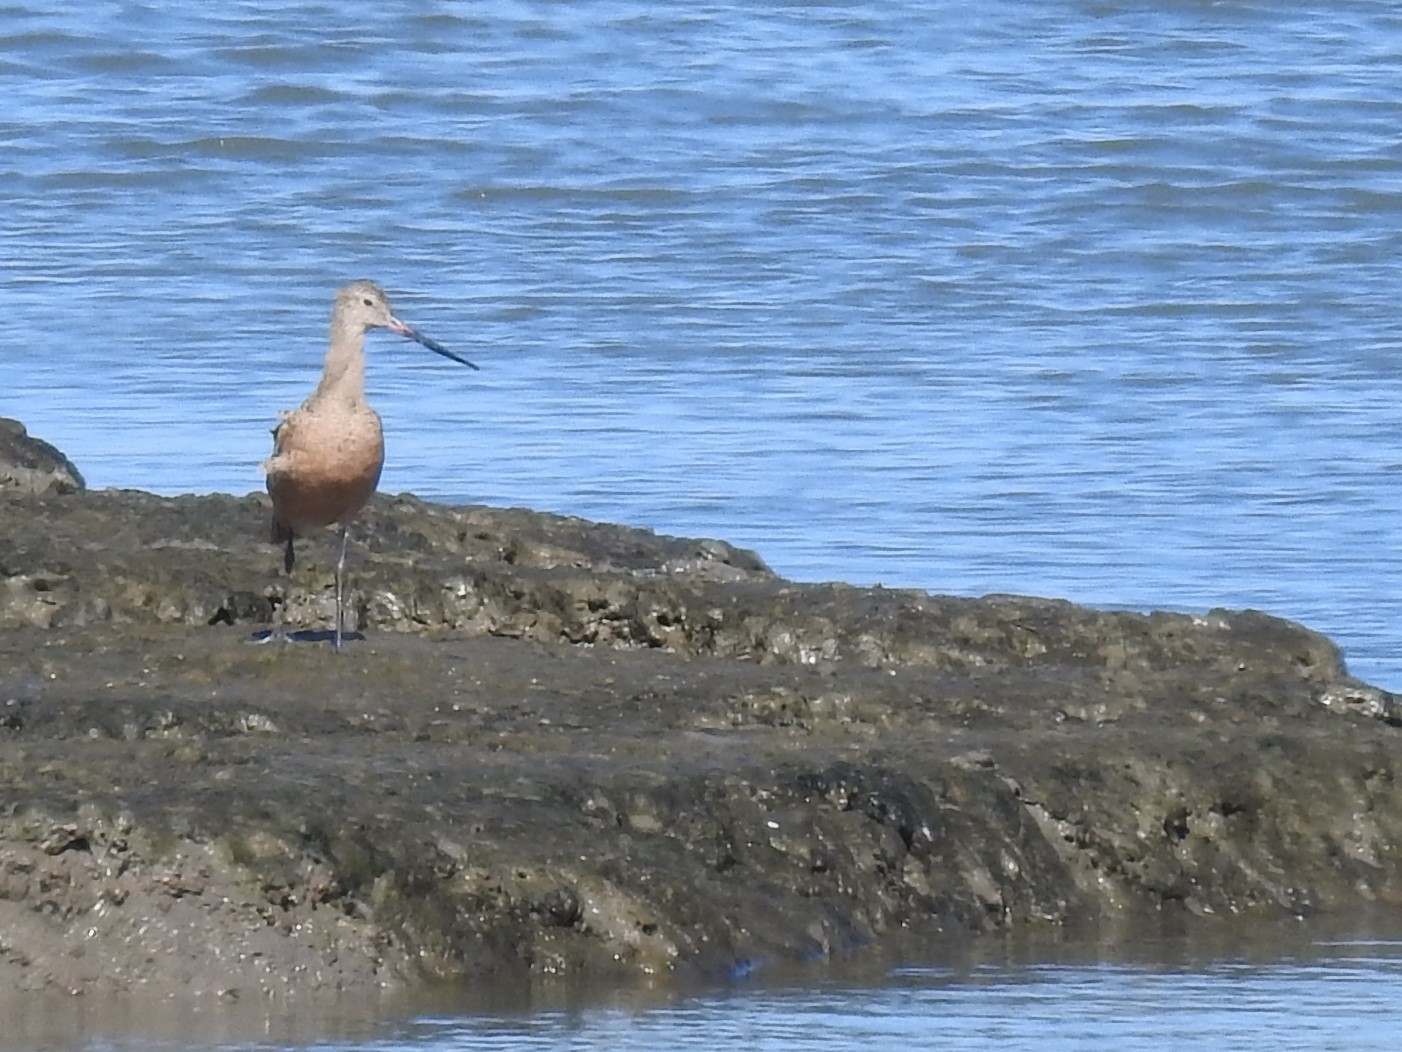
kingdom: Animalia
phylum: Chordata
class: Aves
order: Charadriiformes
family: Scolopacidae
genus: Limosa
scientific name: Limosa fedoa
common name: Marbled godwit
